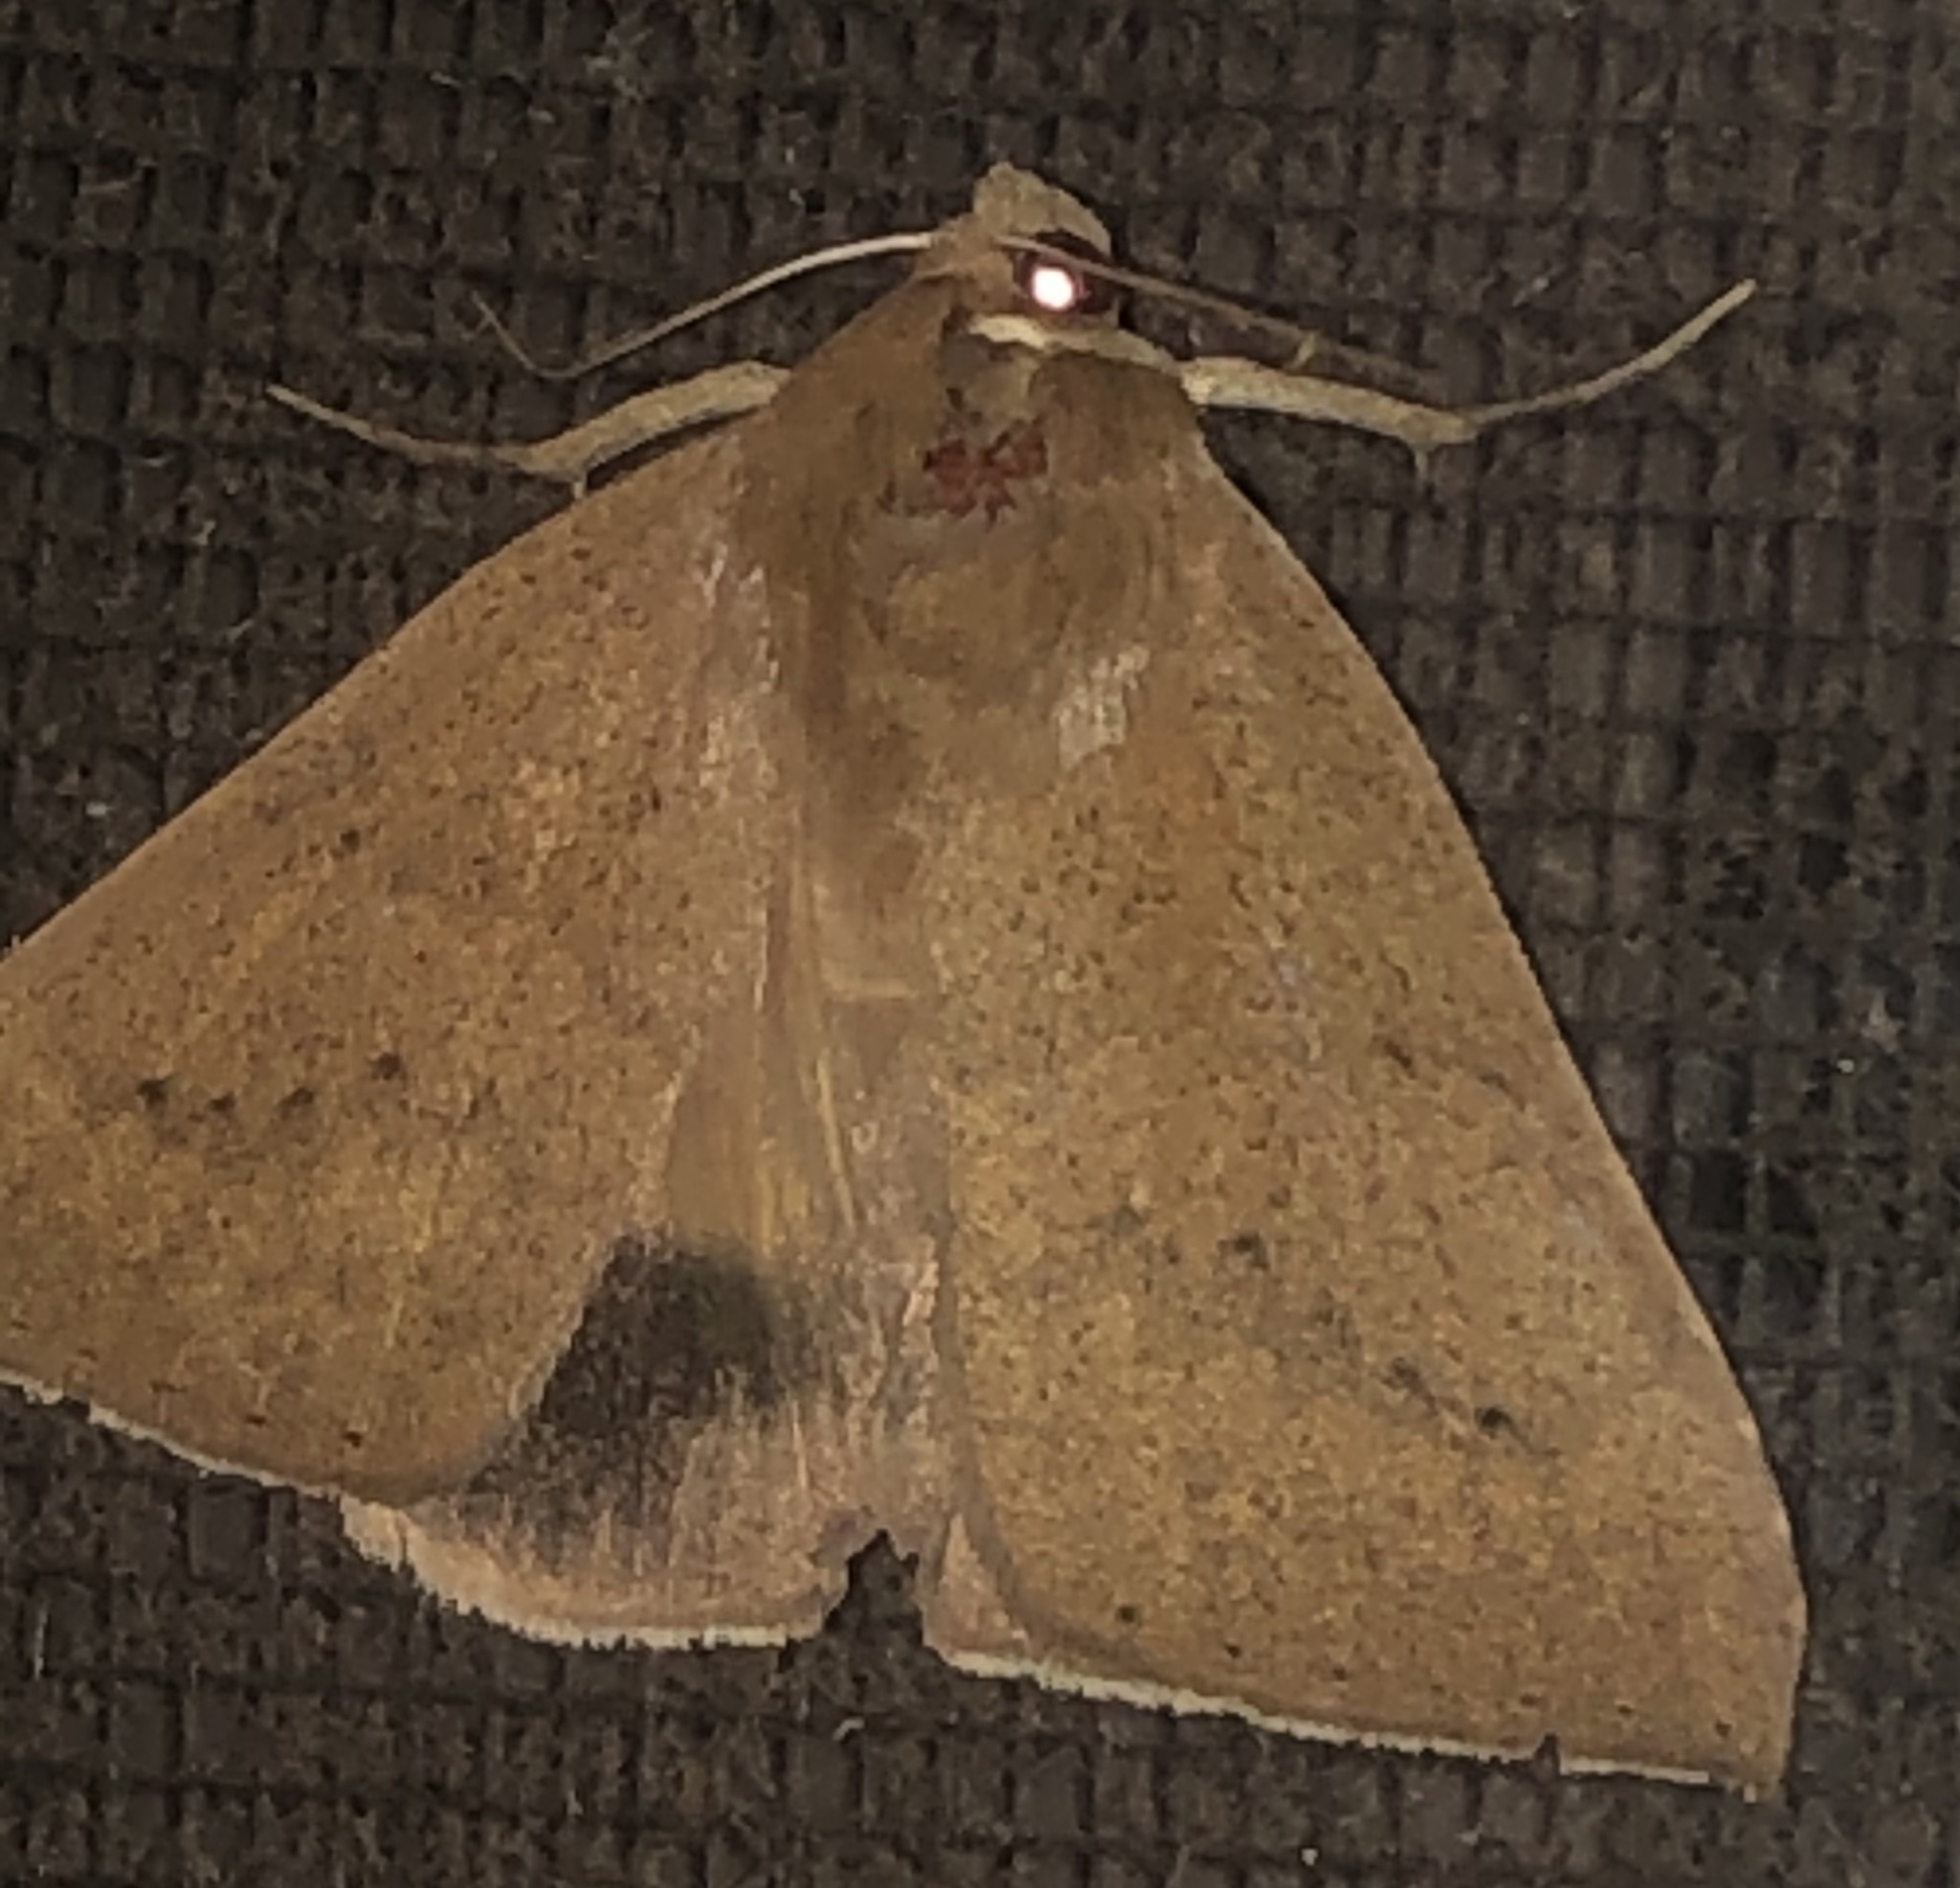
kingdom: Animalia
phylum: Arthropoda
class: Insecta
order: Lepidoptera
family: Erebidae
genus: Ophisma
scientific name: Ophisma gravata
